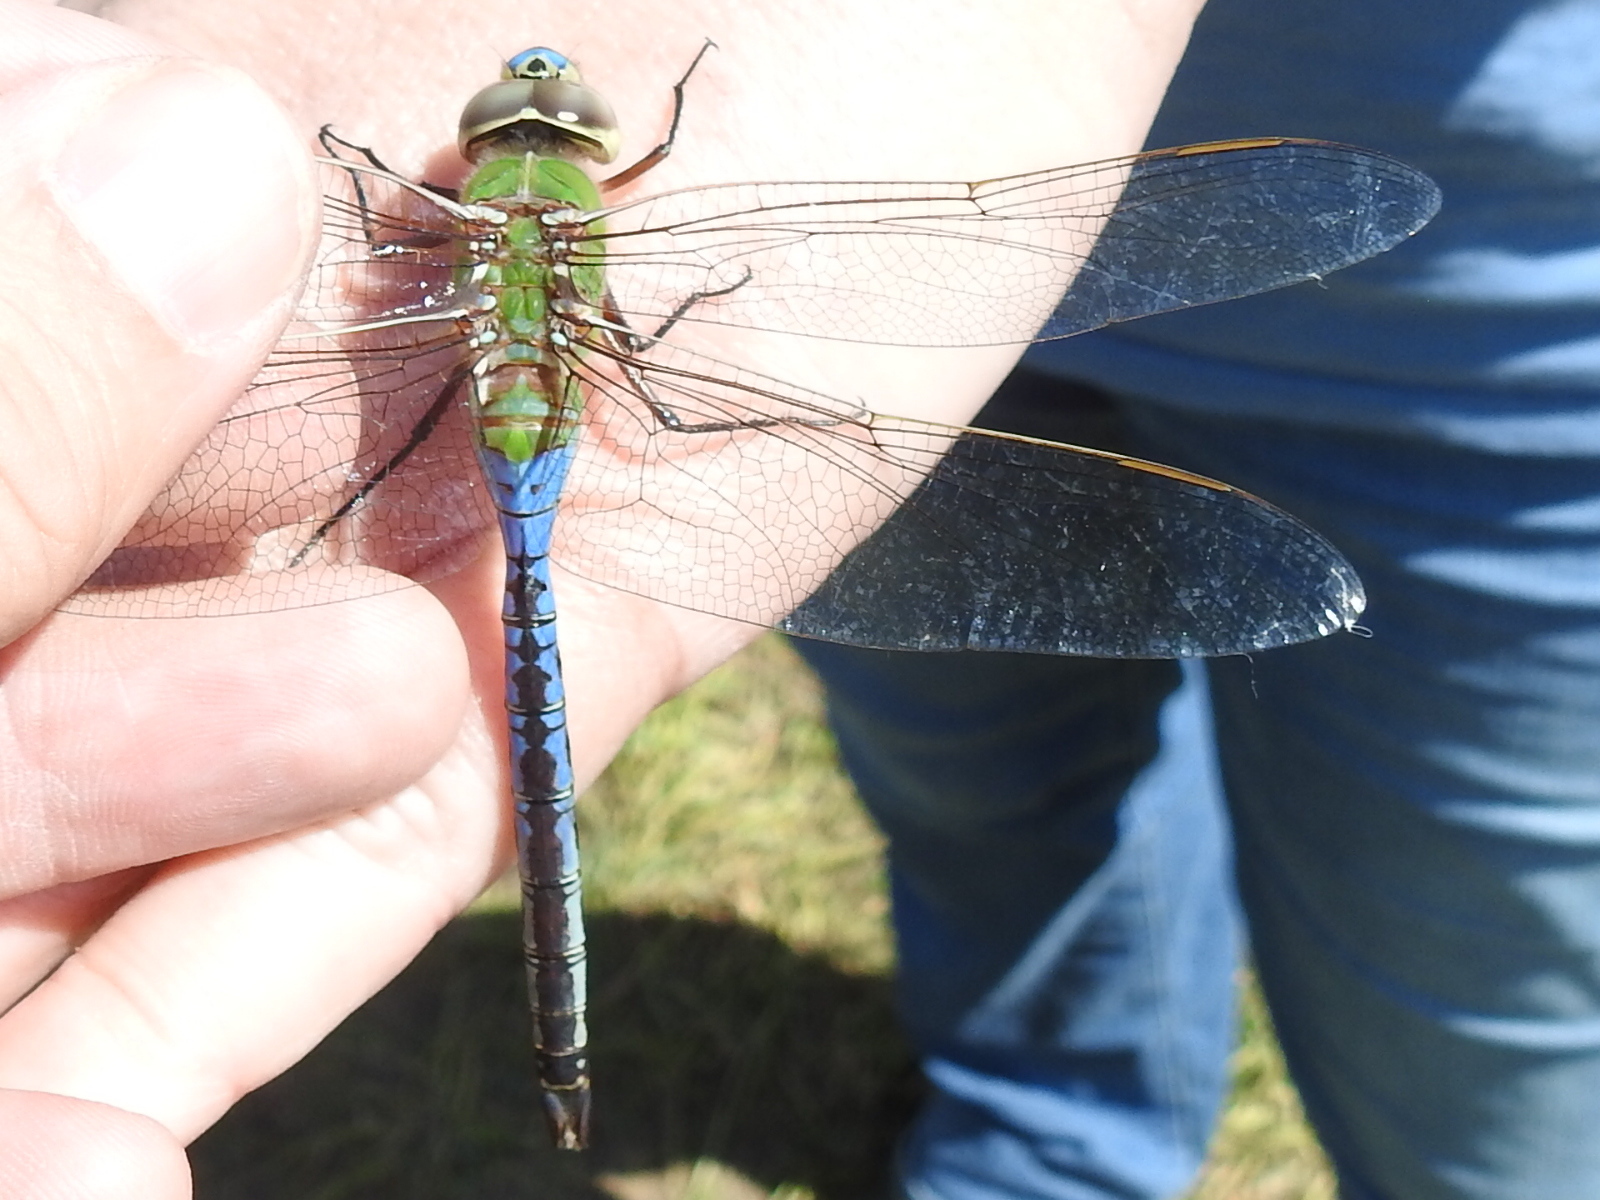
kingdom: Animalia
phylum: Arthropoda
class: Insecta
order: Odonata
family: Aeshnidae
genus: Anax
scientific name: Anax junius
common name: Common green darner
